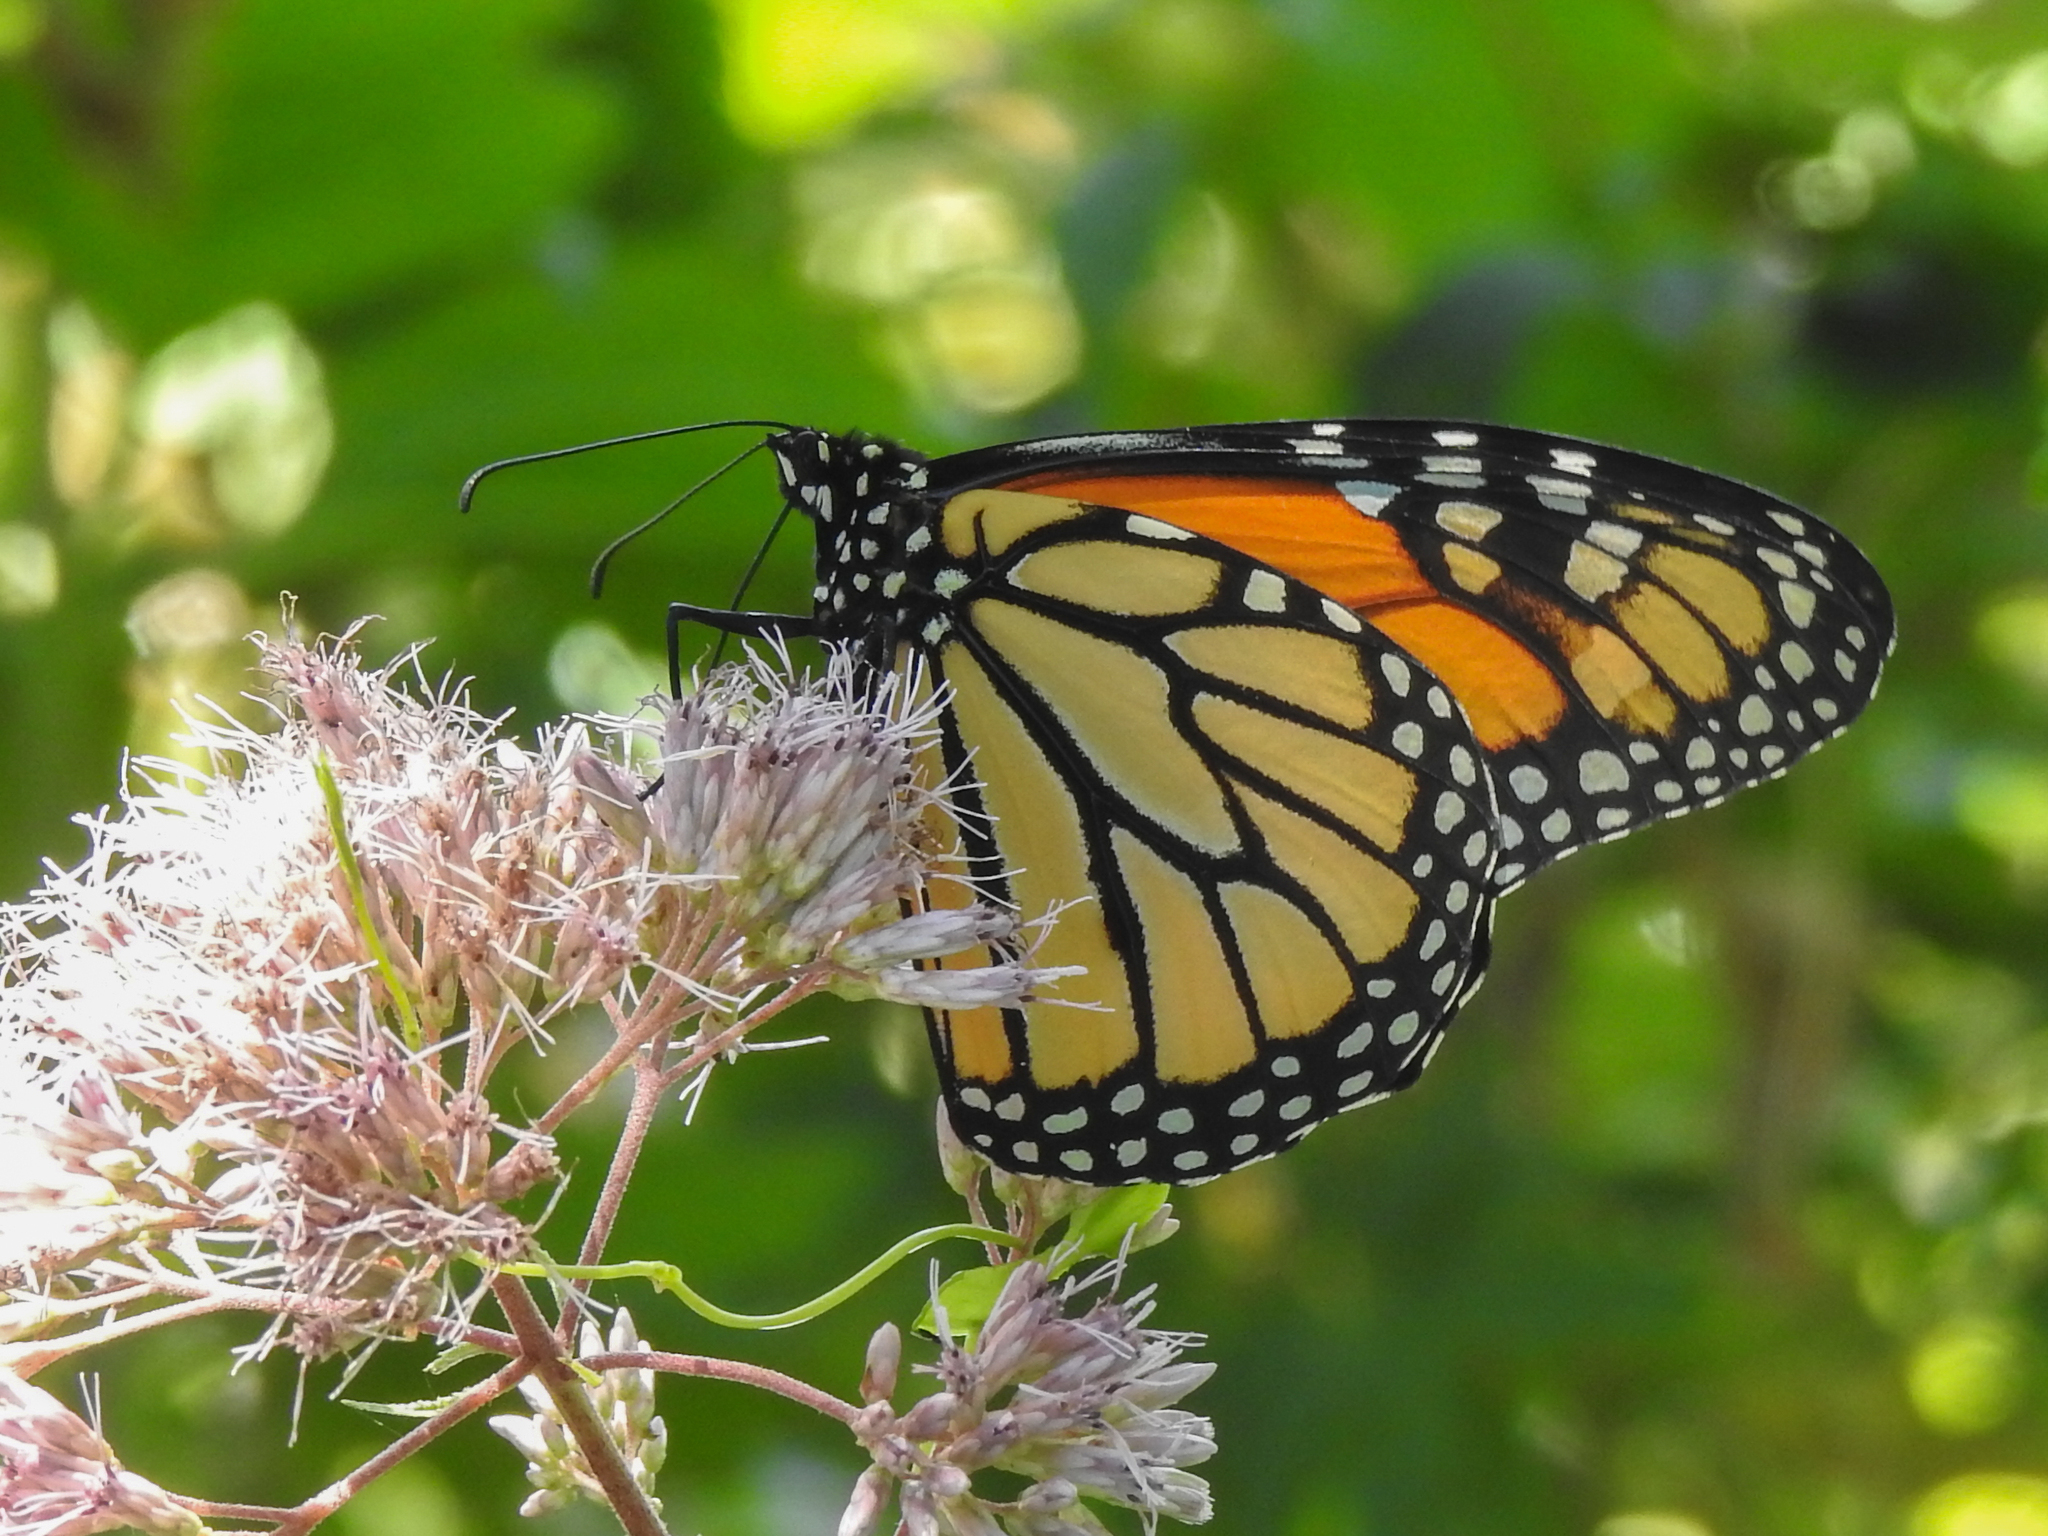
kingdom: Animalia
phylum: Arthropoda
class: Insecta
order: Lepidoptera
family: Nymphalidae
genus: Danaus
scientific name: Danaus plexippus
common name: Monarch
